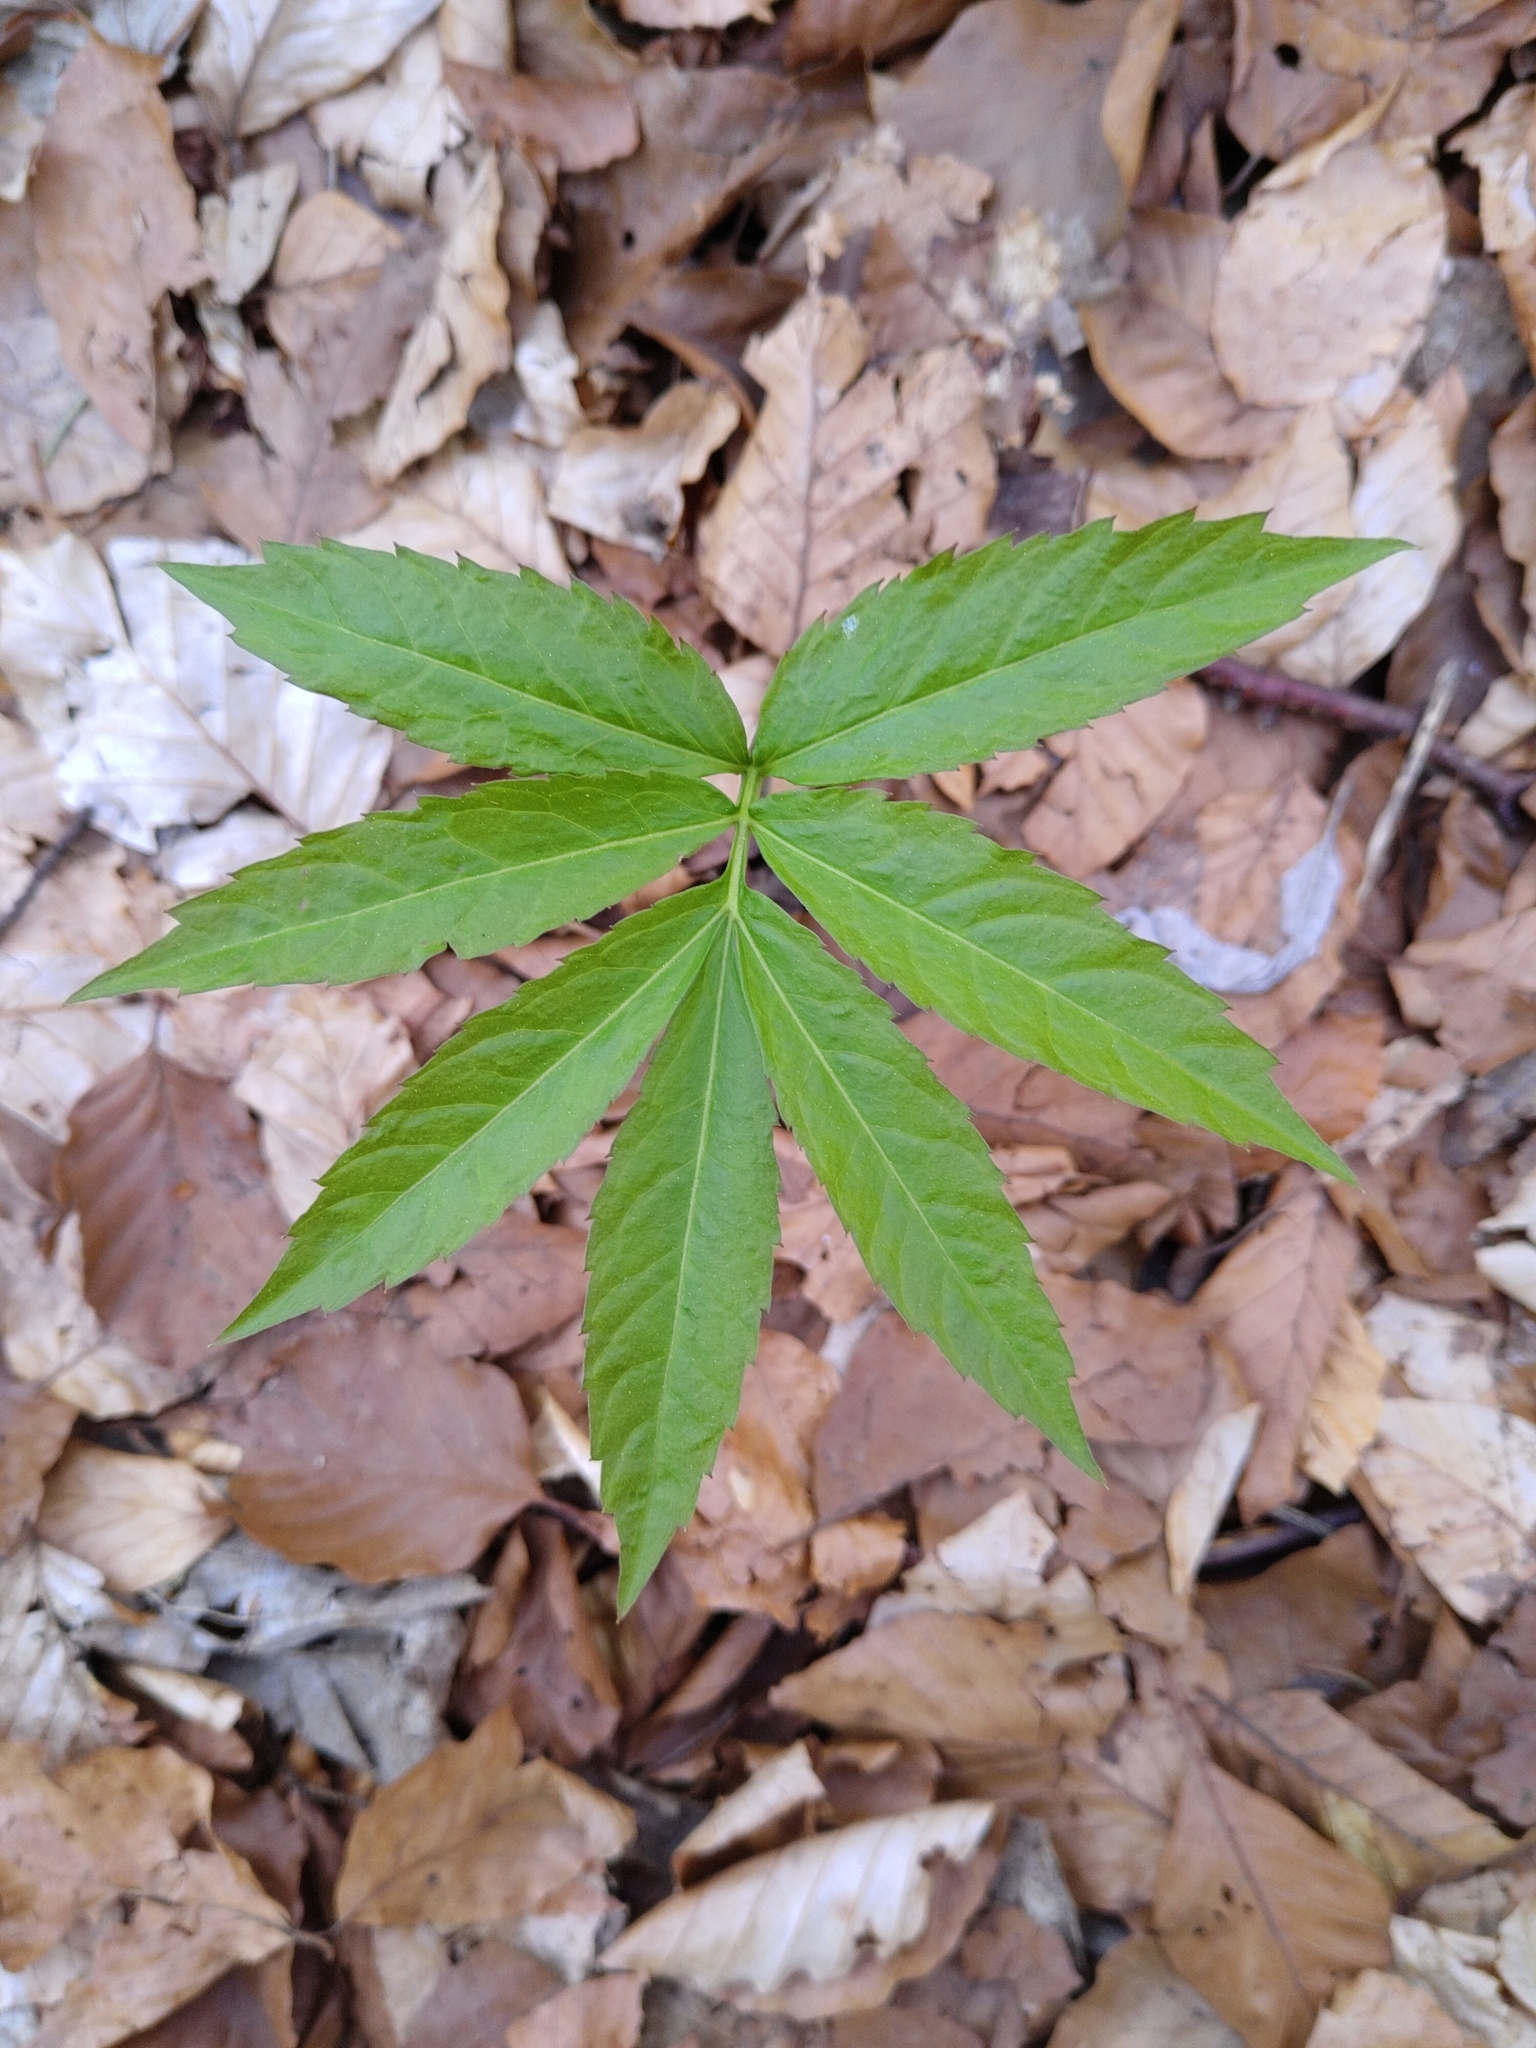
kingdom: Plantae
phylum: Tracheophyta
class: Magnoliopsida
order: Brassicales
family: Brassicaceae
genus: Cardamine
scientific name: Cardamine heptaphylla
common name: Pinnate coralroot
